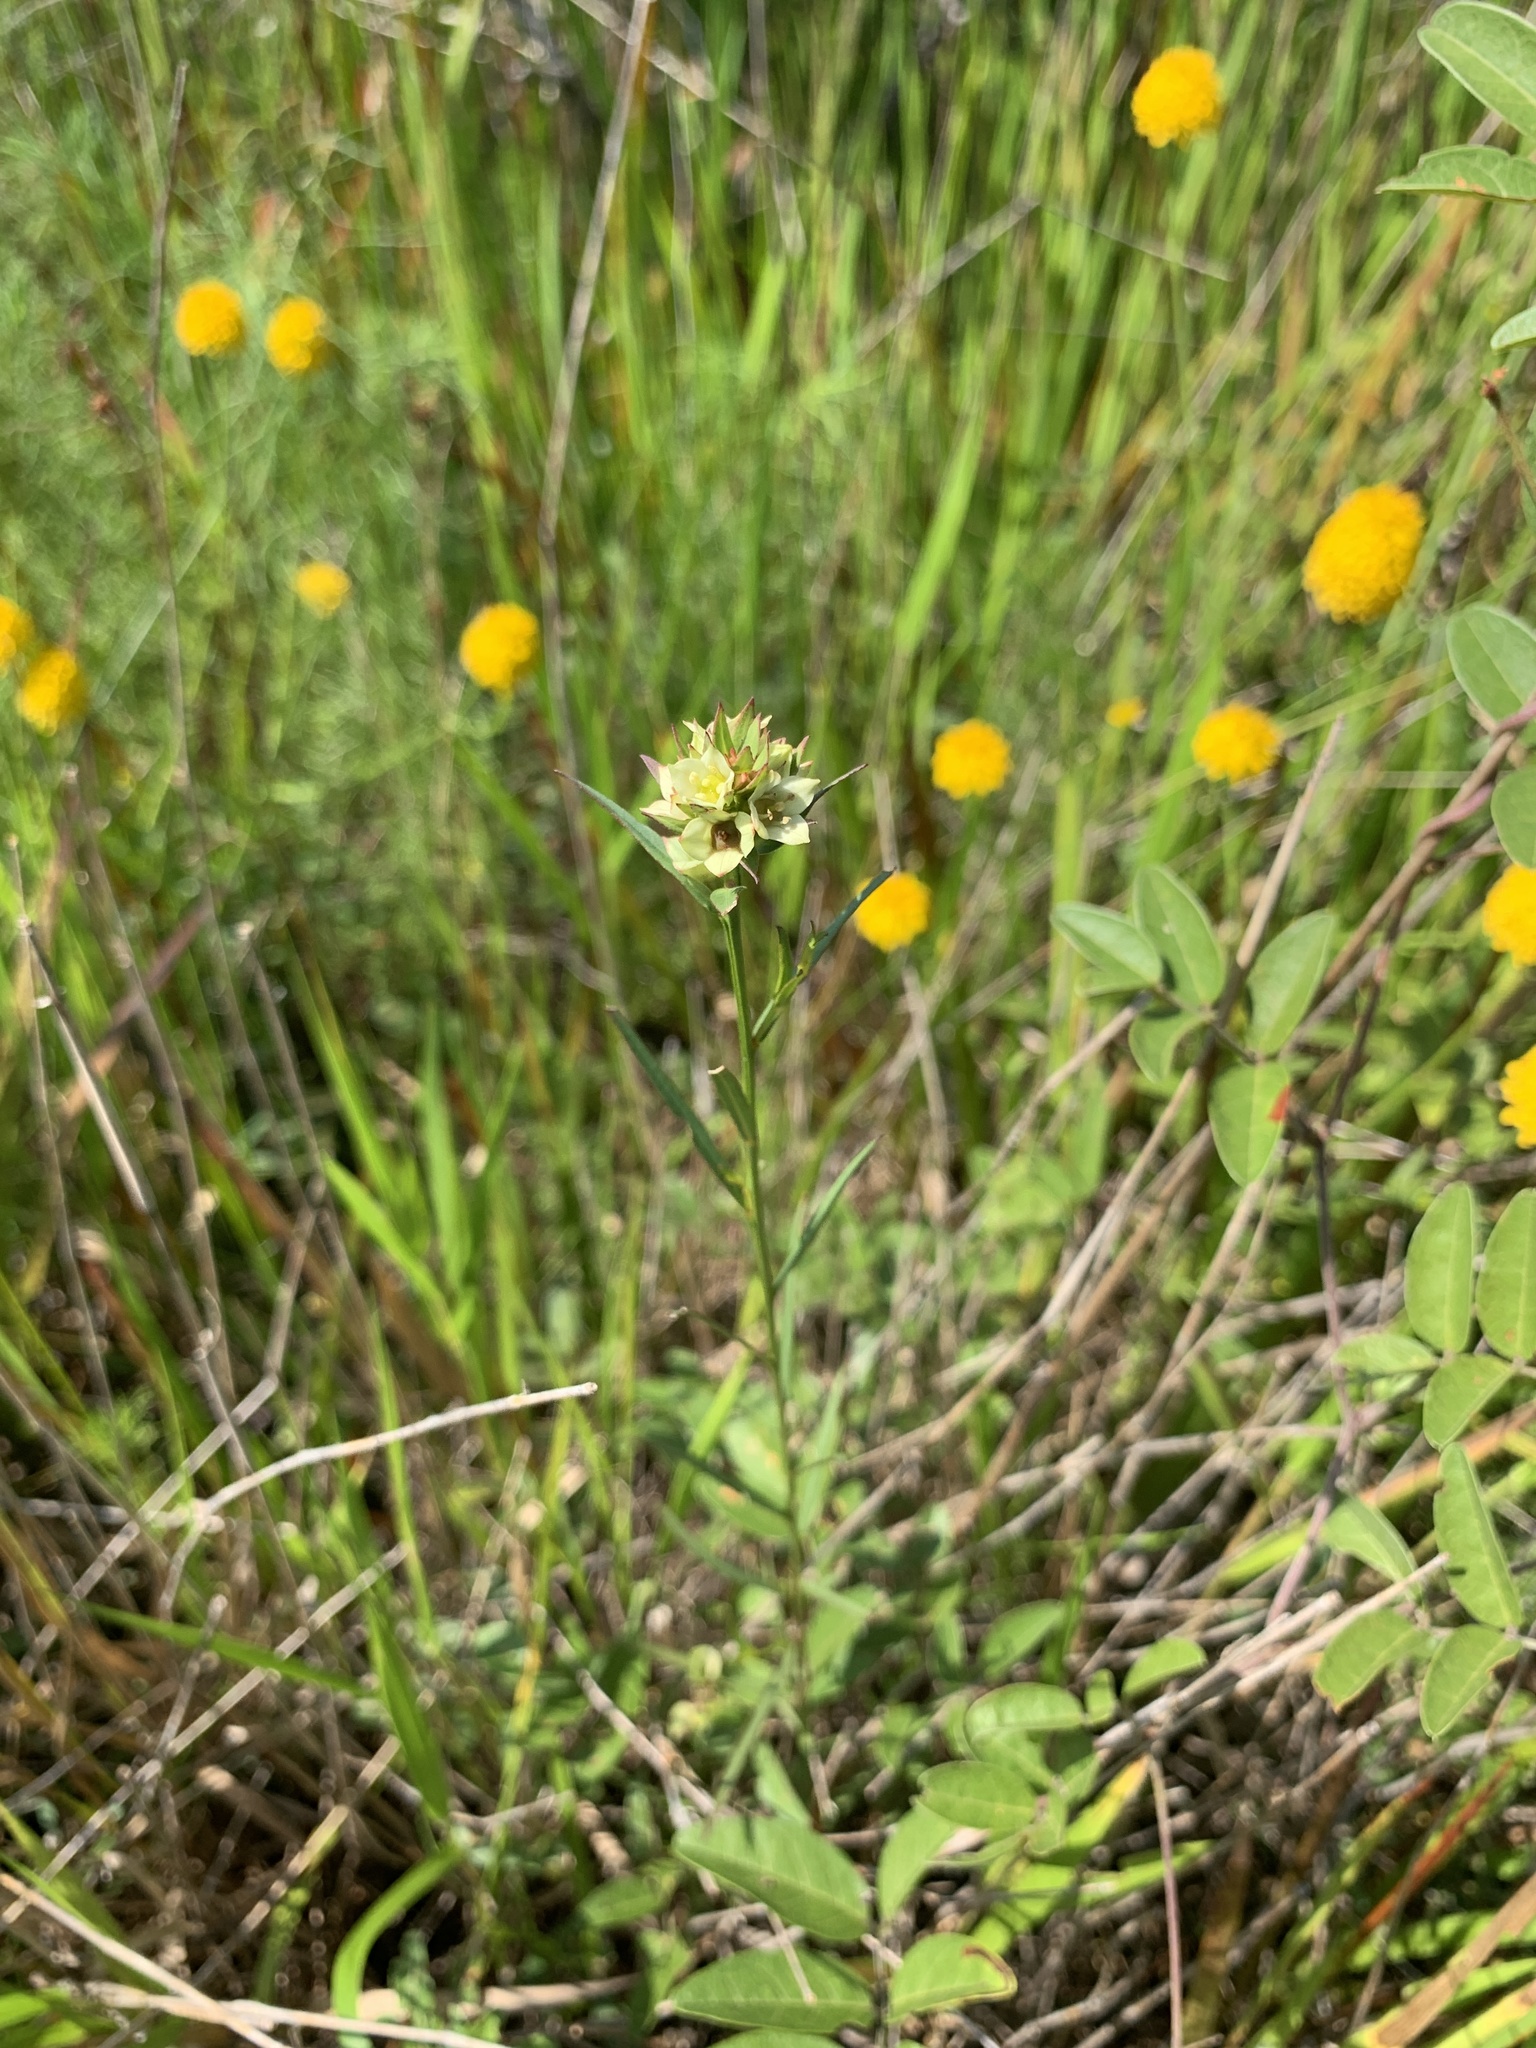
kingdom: Plantae
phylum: Tracheophyta
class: Magnoliopsida
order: Myrtales
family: Onagraceae
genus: Ludwigia
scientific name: Ludwigia suffruticosa
